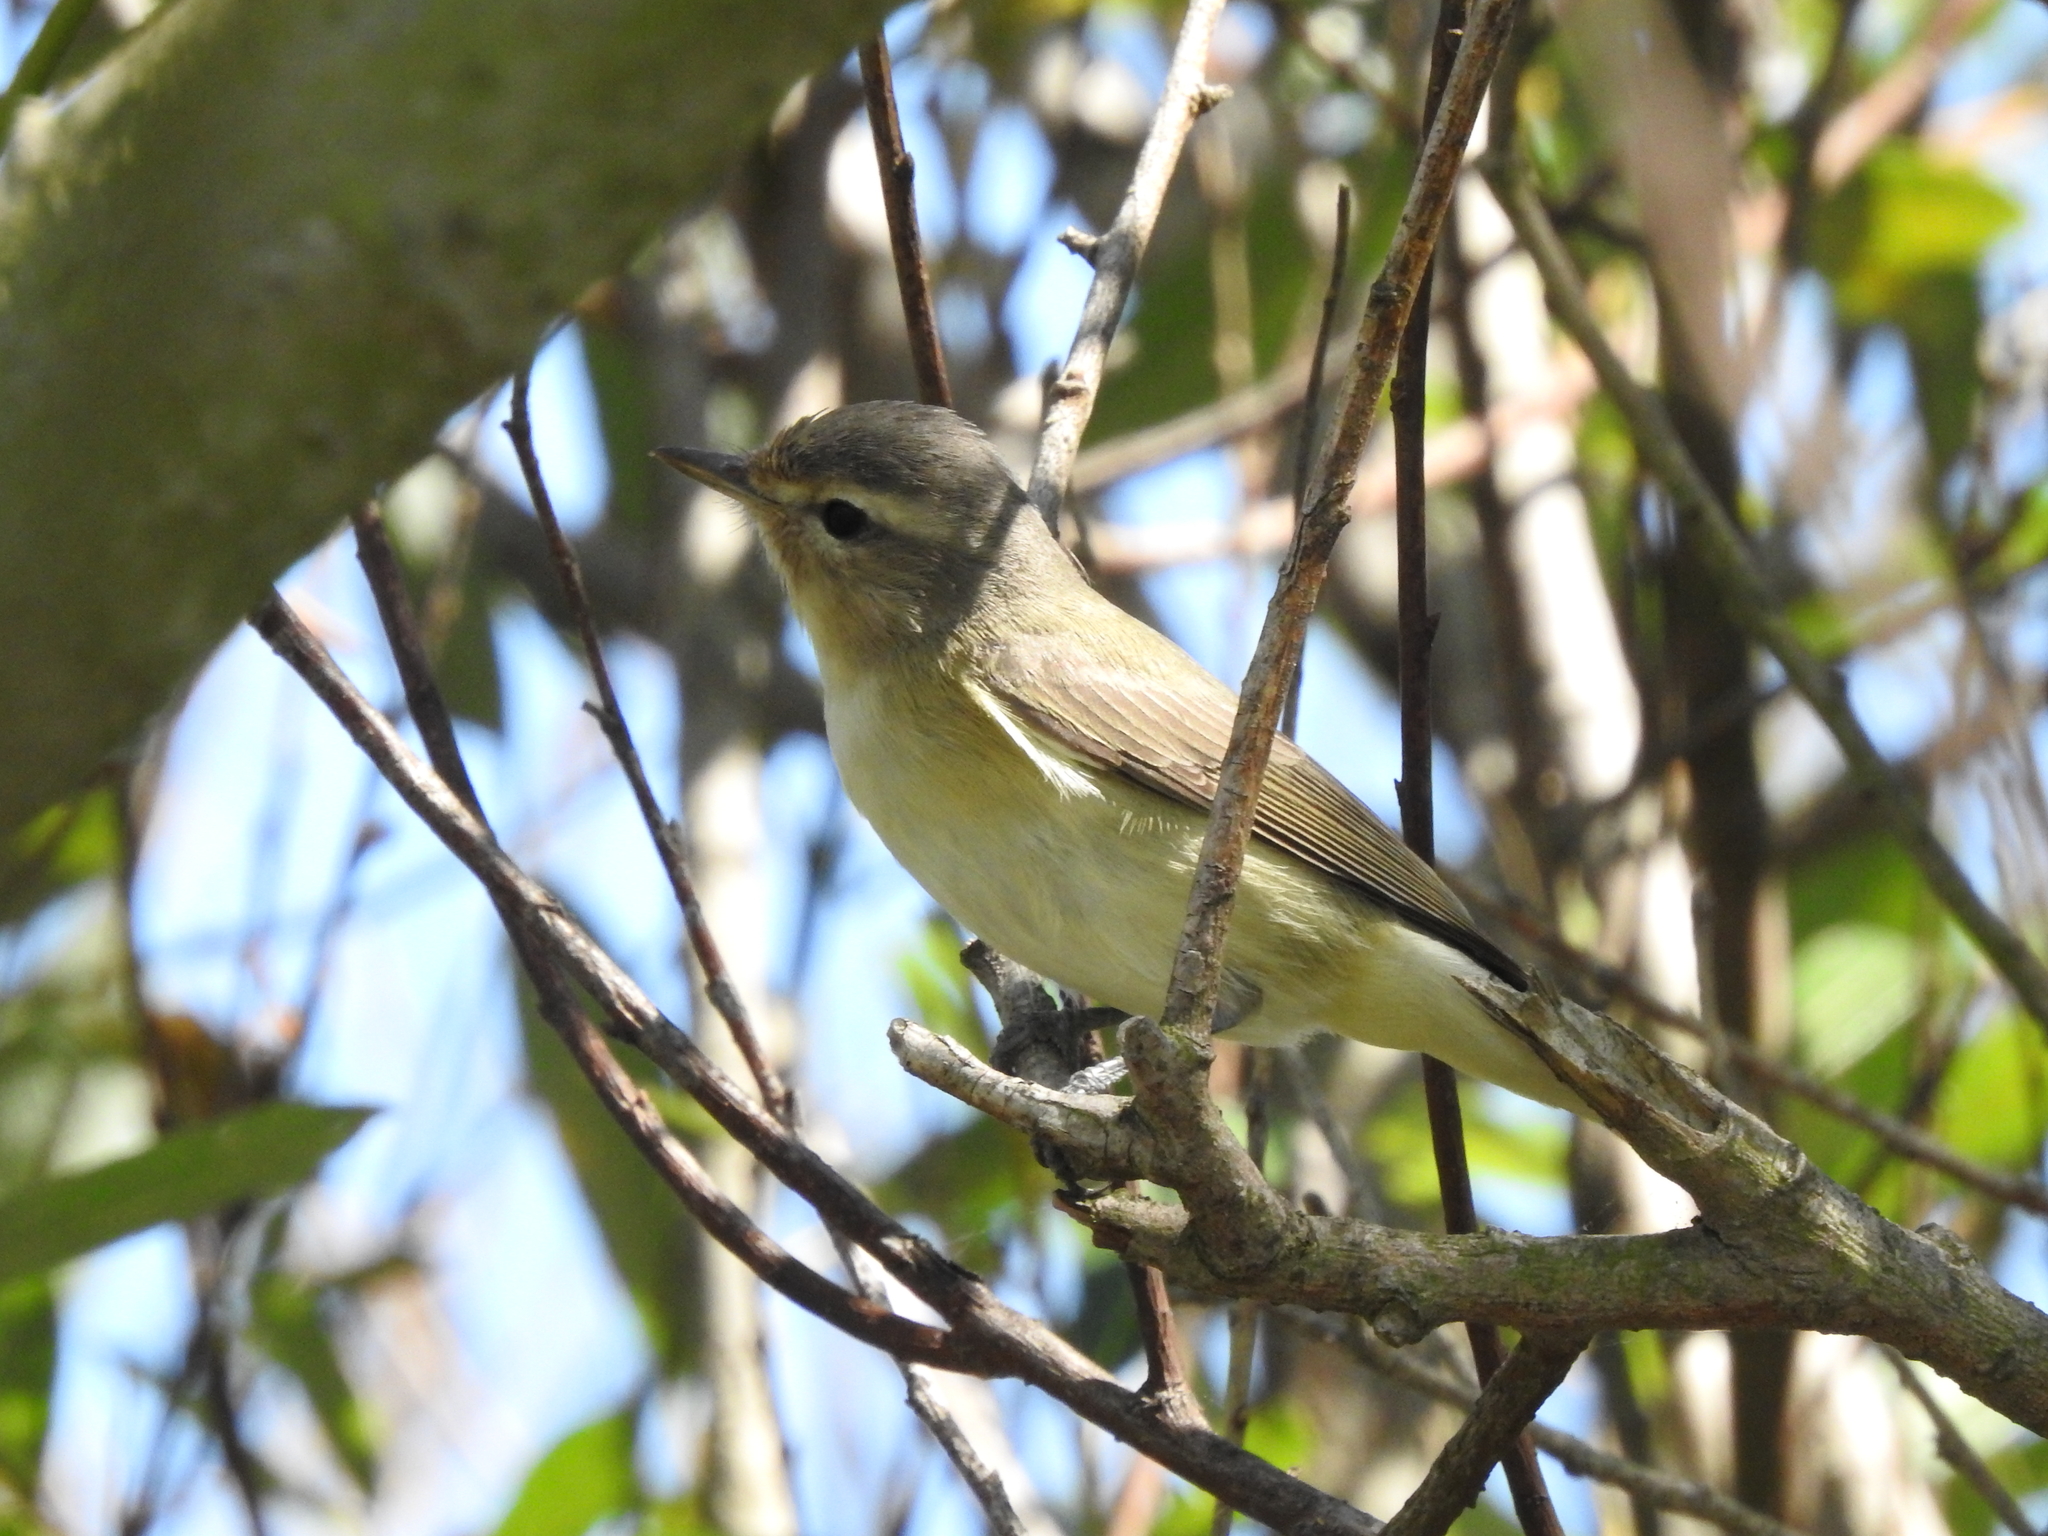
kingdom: Animalia
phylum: Chordata
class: Aves
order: Passeriformes
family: Vireonidae
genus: Vireo
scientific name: Vireo gilvus
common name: Warbling vireo
